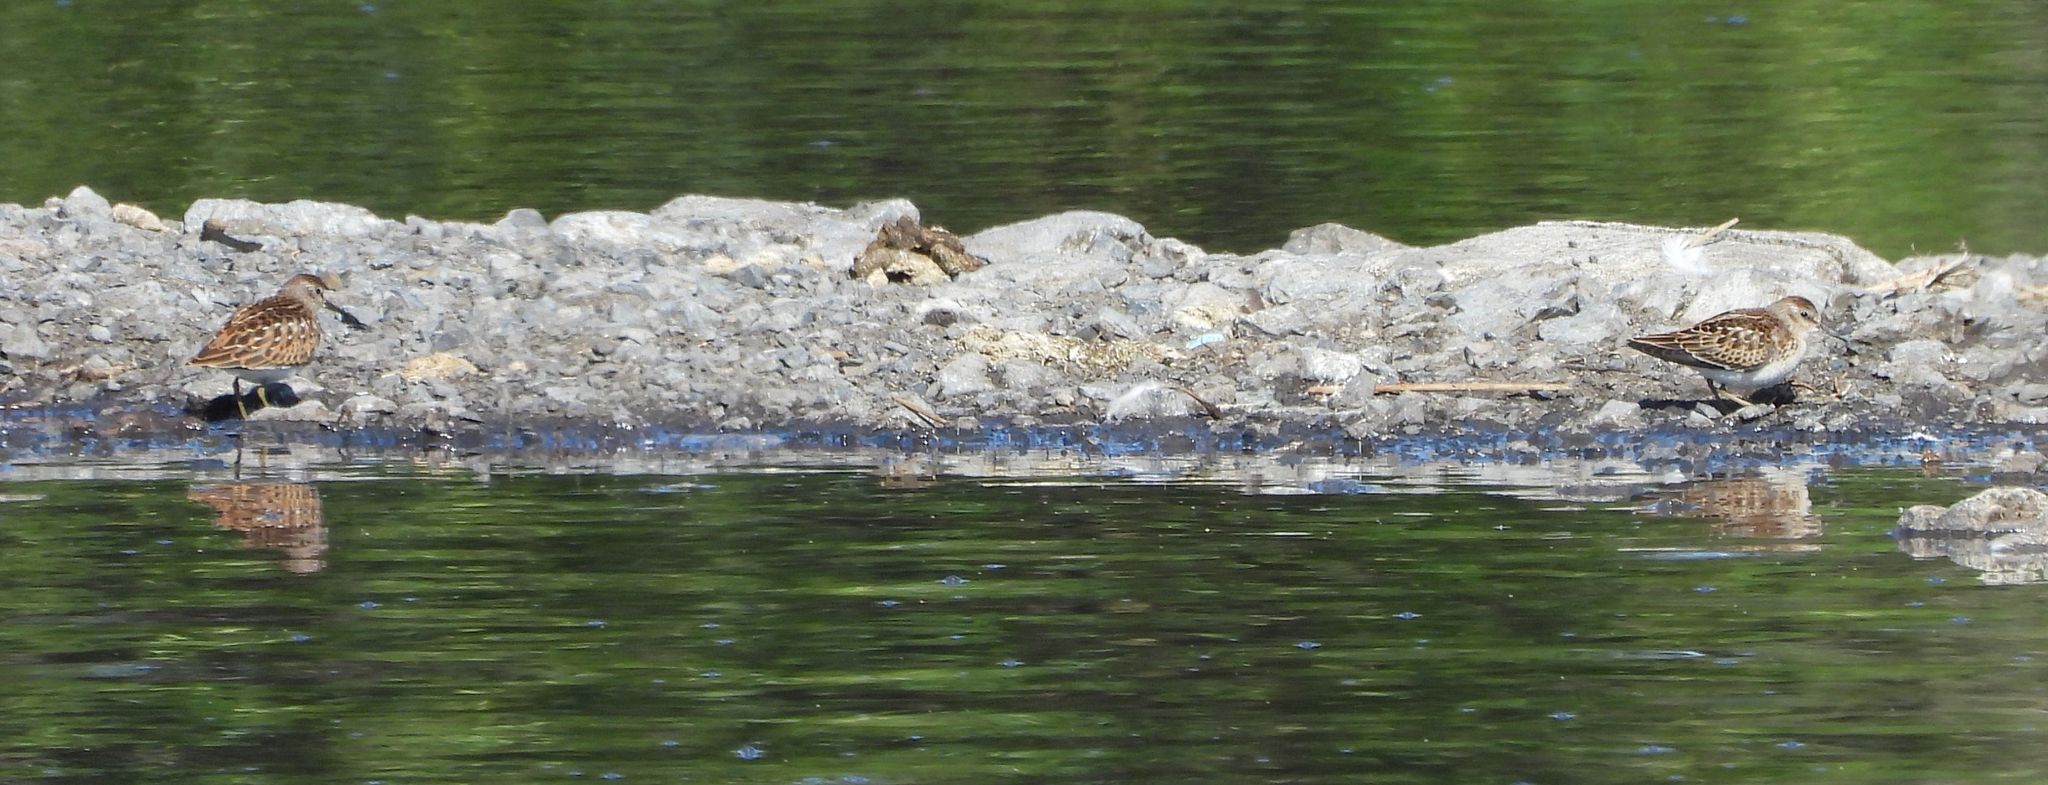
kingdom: Animalia
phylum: Chordata
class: Aves
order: Charadriiformes
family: Scolopacidae
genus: Calidris
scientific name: Calidris minutilla
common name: Least sandpiper
